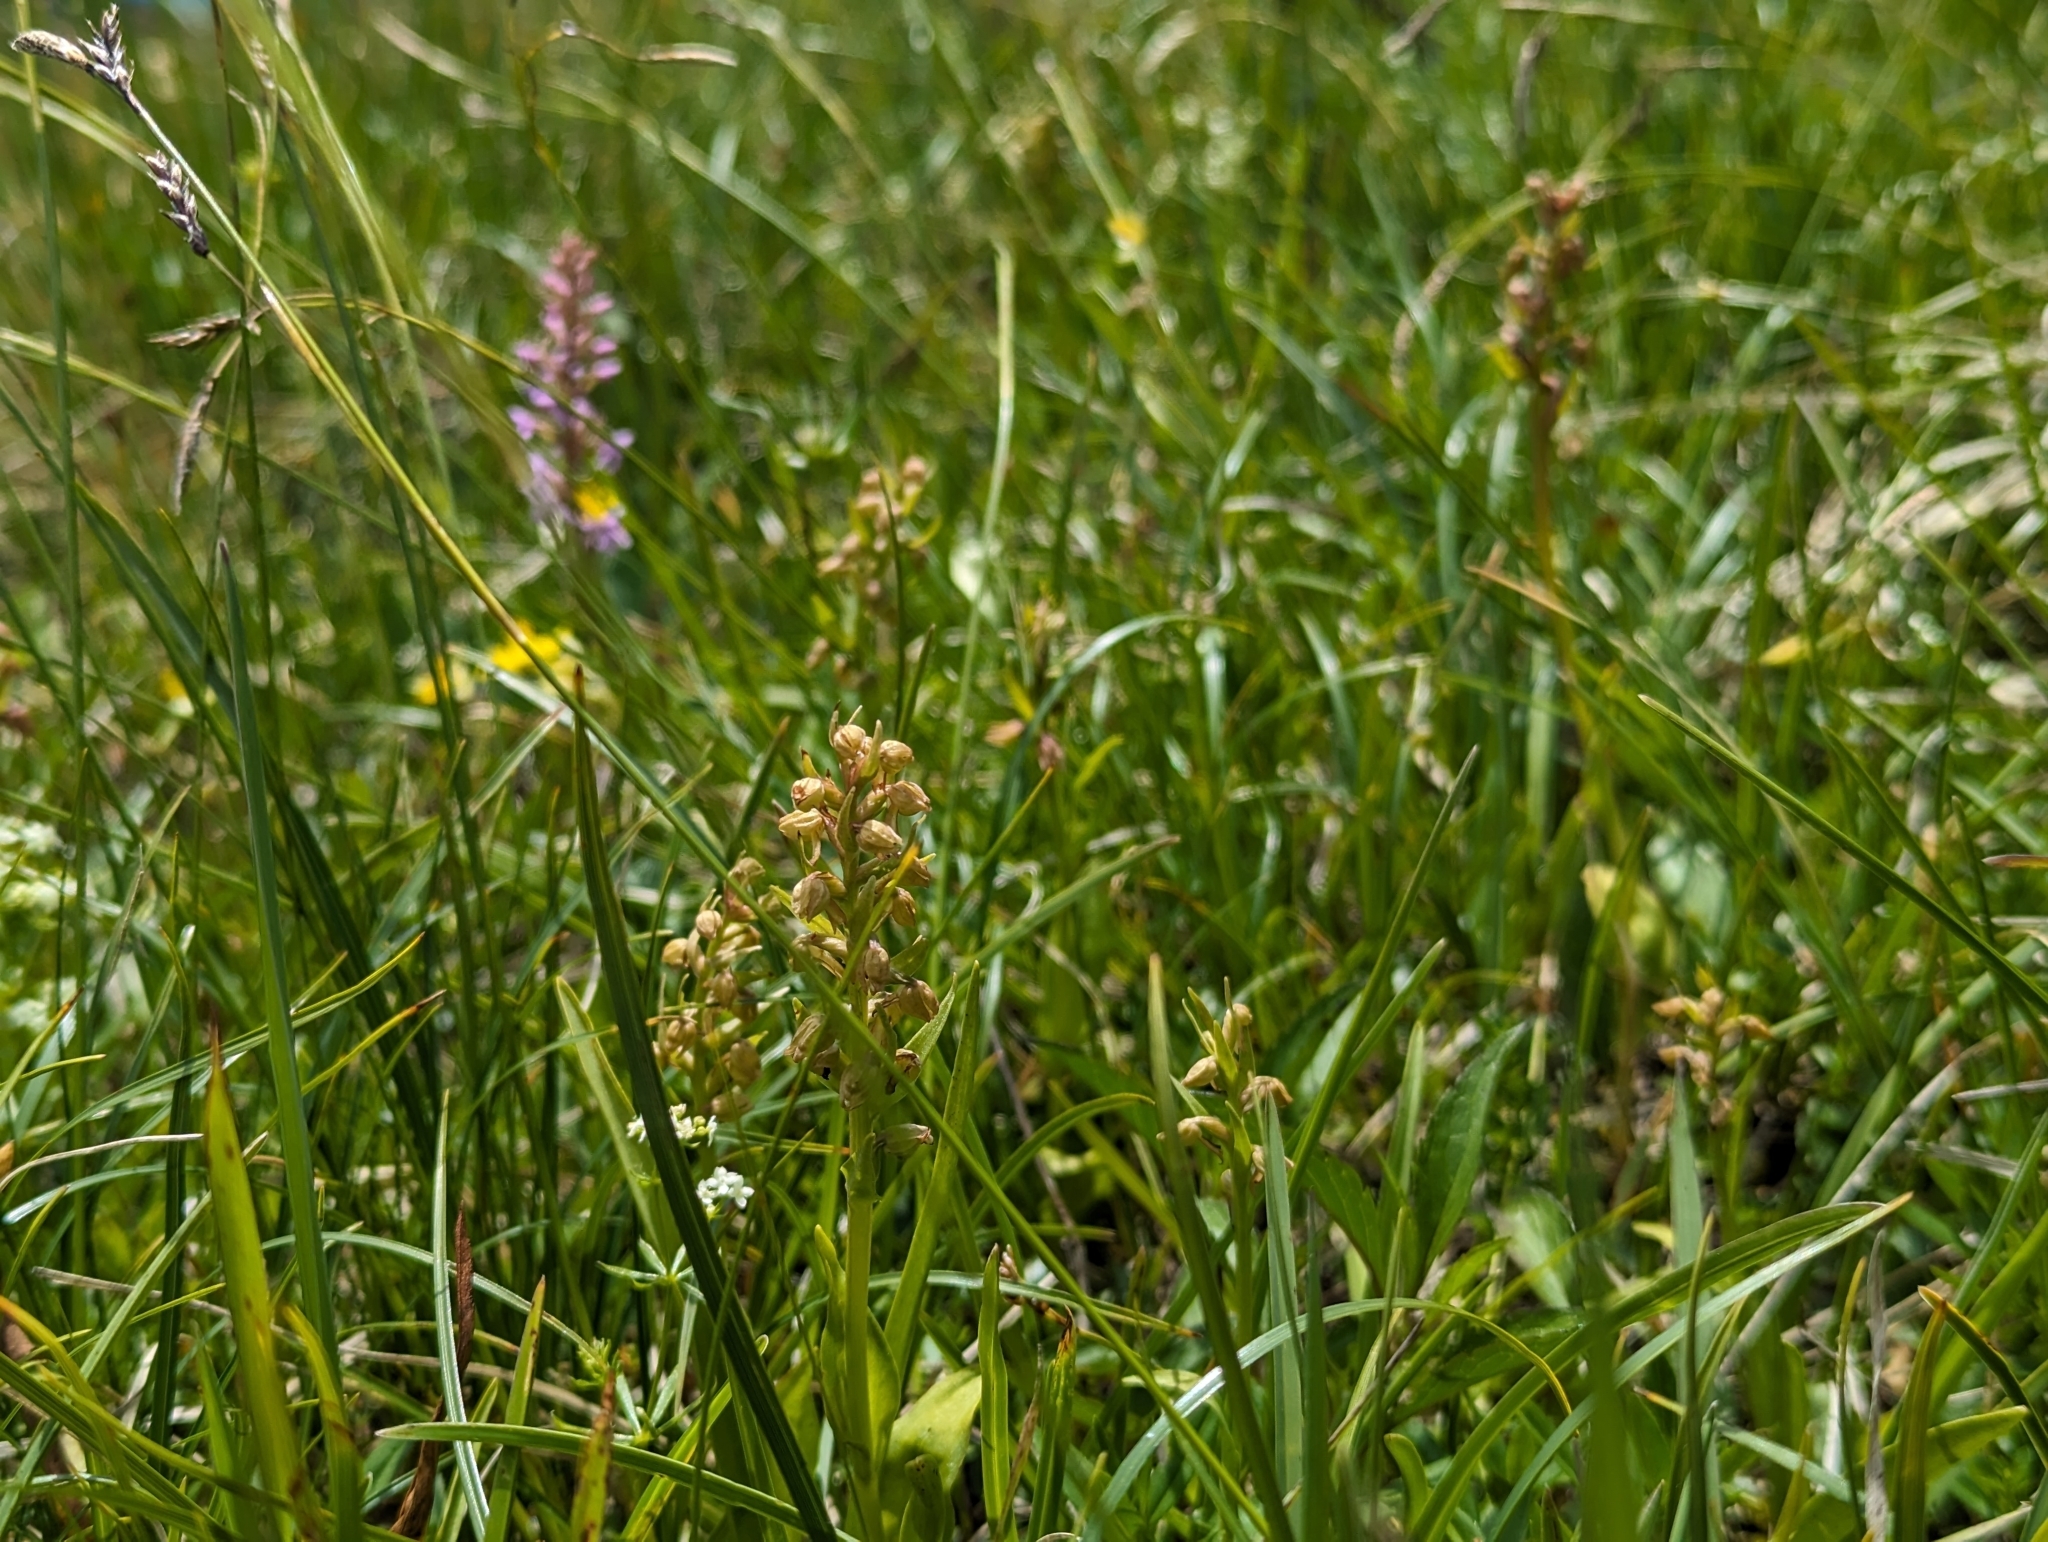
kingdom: Plantae
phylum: Tracheophyta
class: Liliopsida
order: Asparagales
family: Orchidaceae
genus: Dactylorhiza
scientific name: Dactylorhiza viridis
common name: Longbract frog orchid
